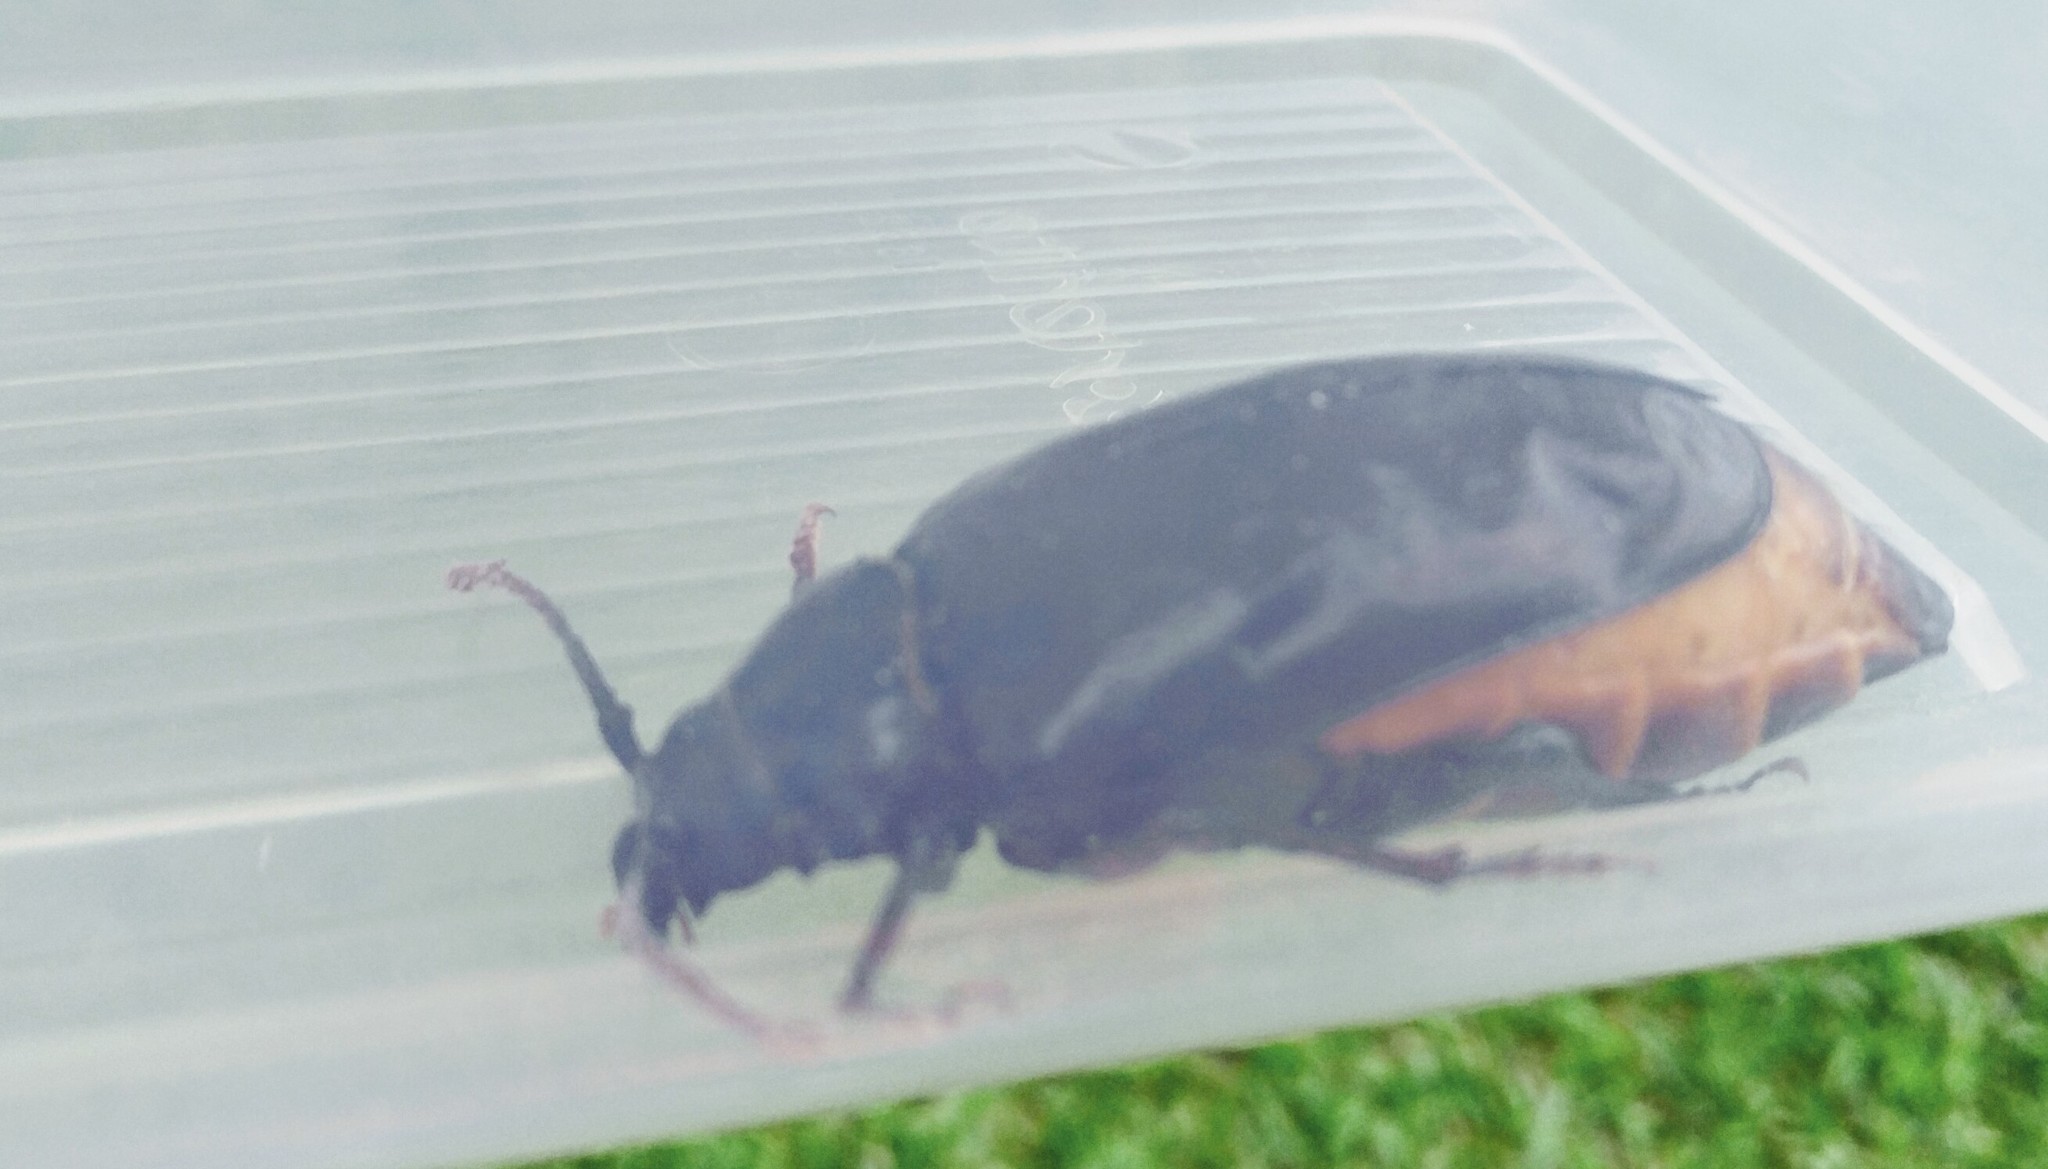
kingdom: Animalia
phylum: Arthropoda
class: Insecta
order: Coleoptera
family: Cerambycidae
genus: Prionus
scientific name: Prionus laticollis
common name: Broad necked prionus
